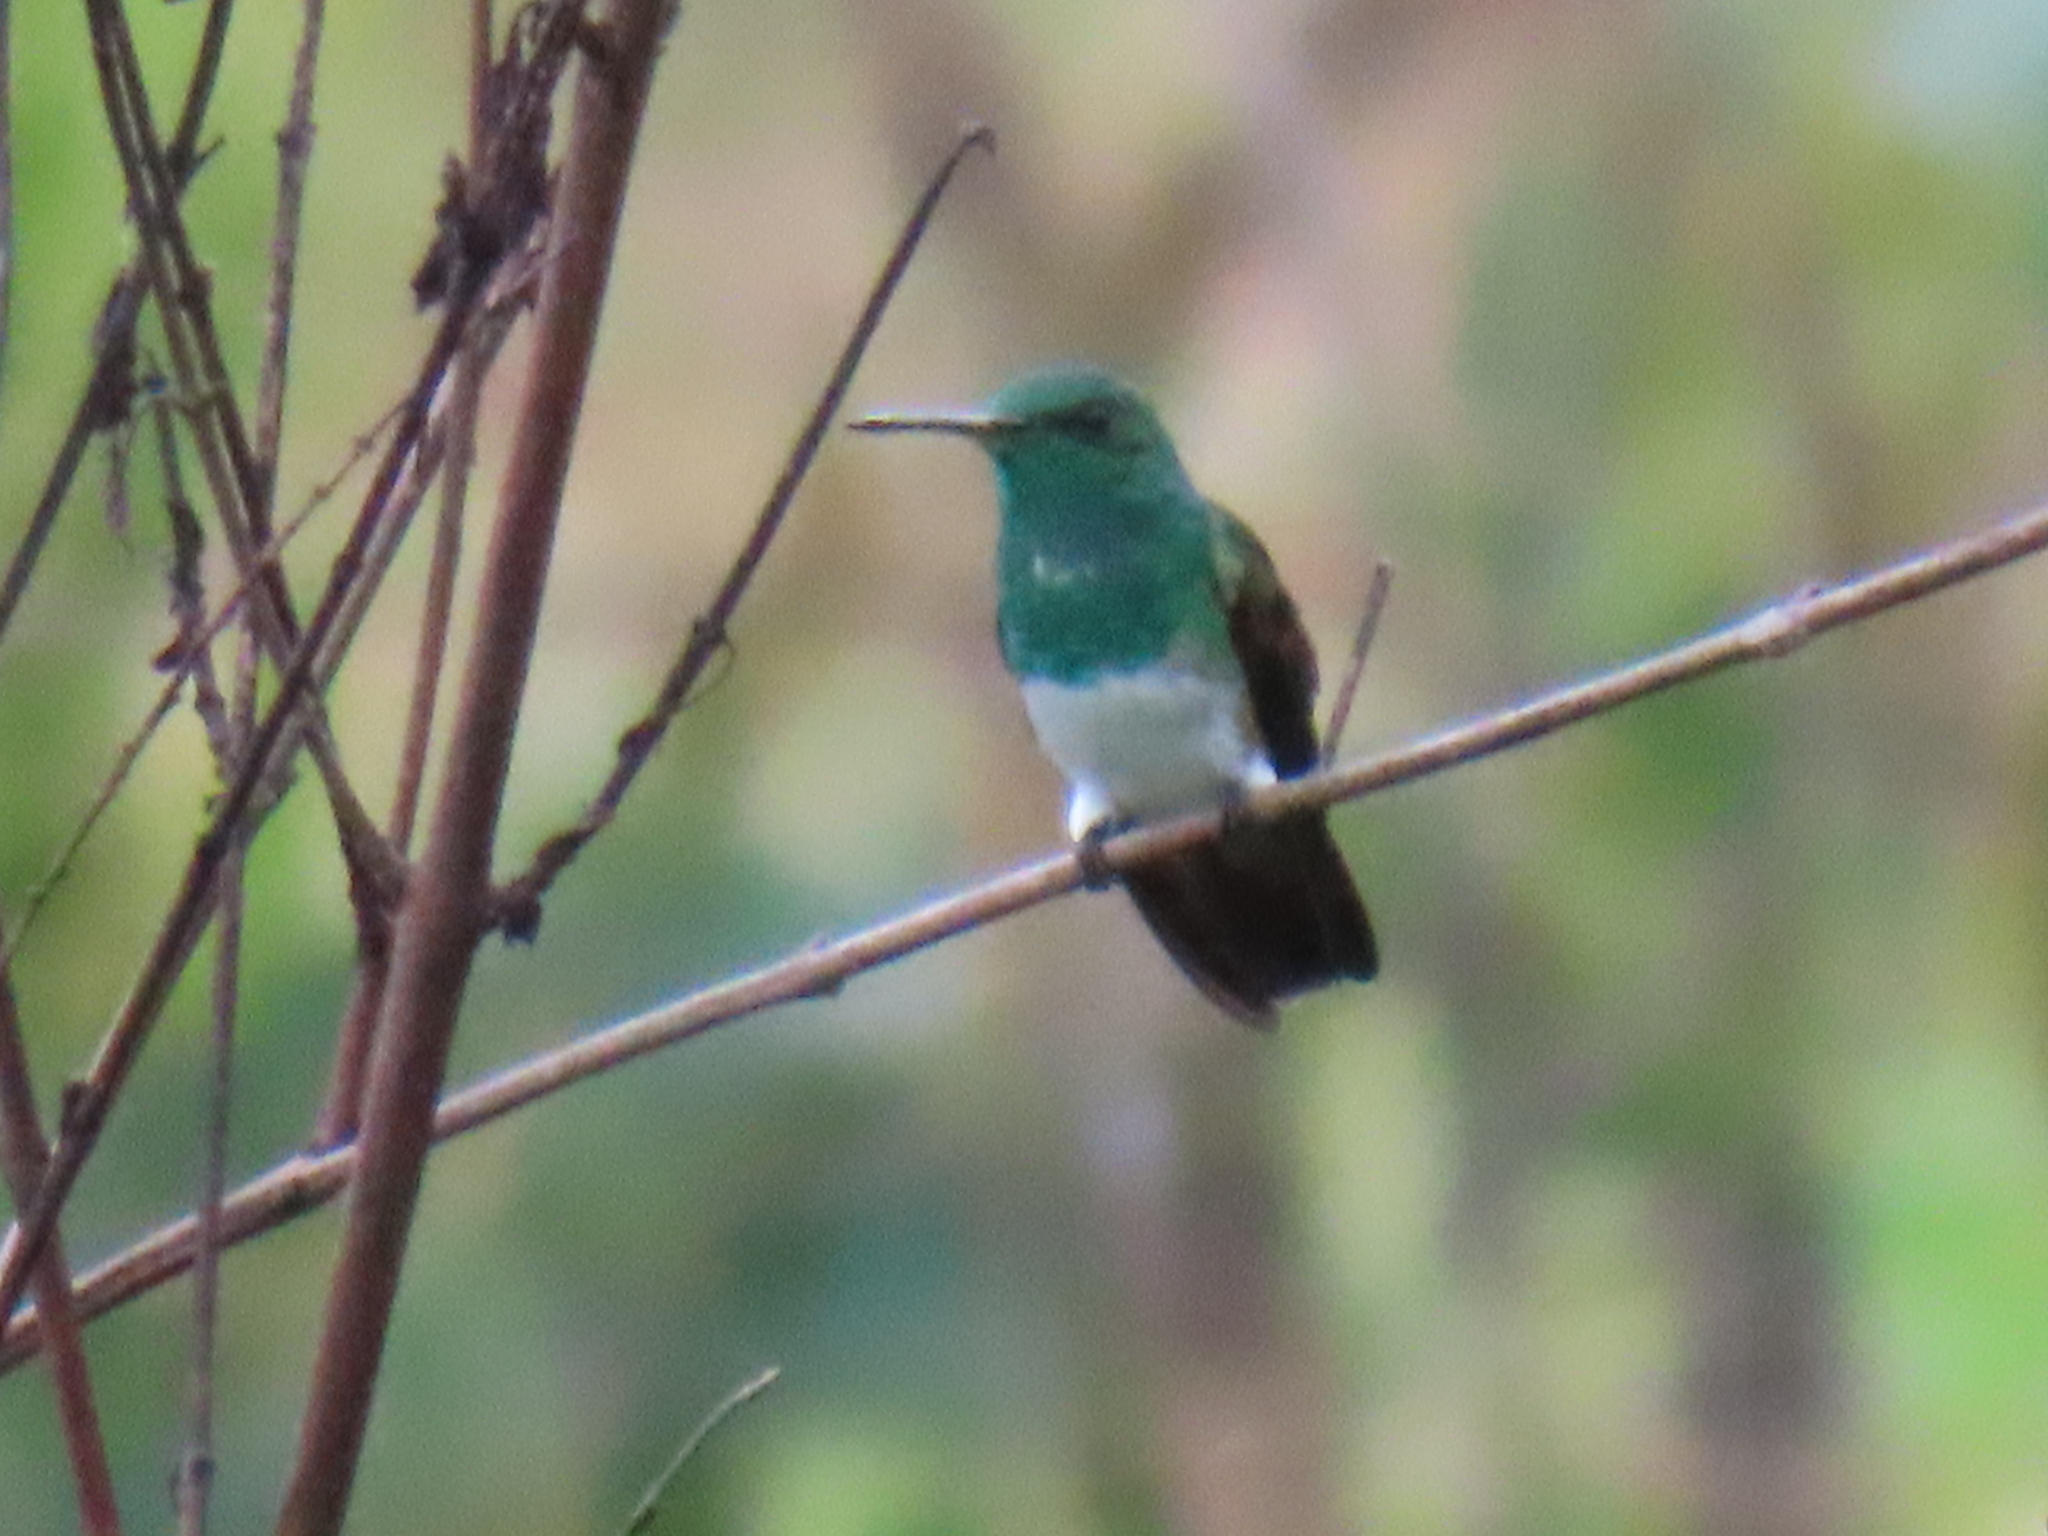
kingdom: Animalia
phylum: Chordata
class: Aves
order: Apodiformes
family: Trochilidae
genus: Saucerottia
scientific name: Saucerottia edward
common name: Snowy-bellied hummingbird
